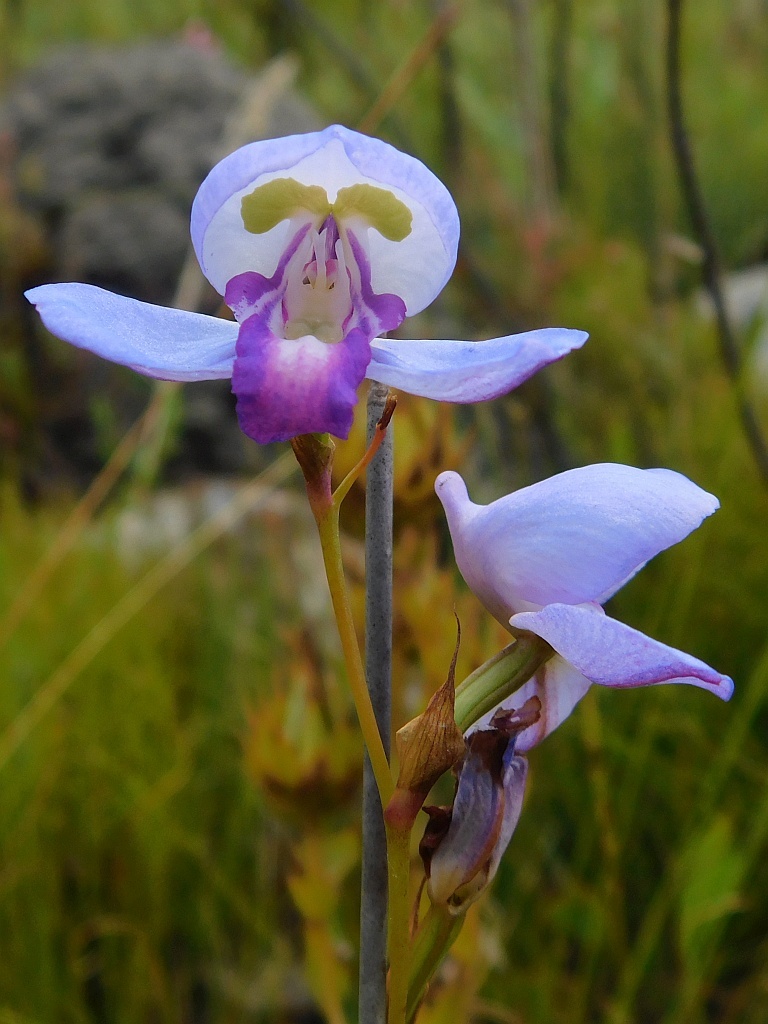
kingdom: Plantae
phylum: Tracheophyta
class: Liliopsida
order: Asparagales
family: Orchidaceae
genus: Disa
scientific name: Disa graminifolia
